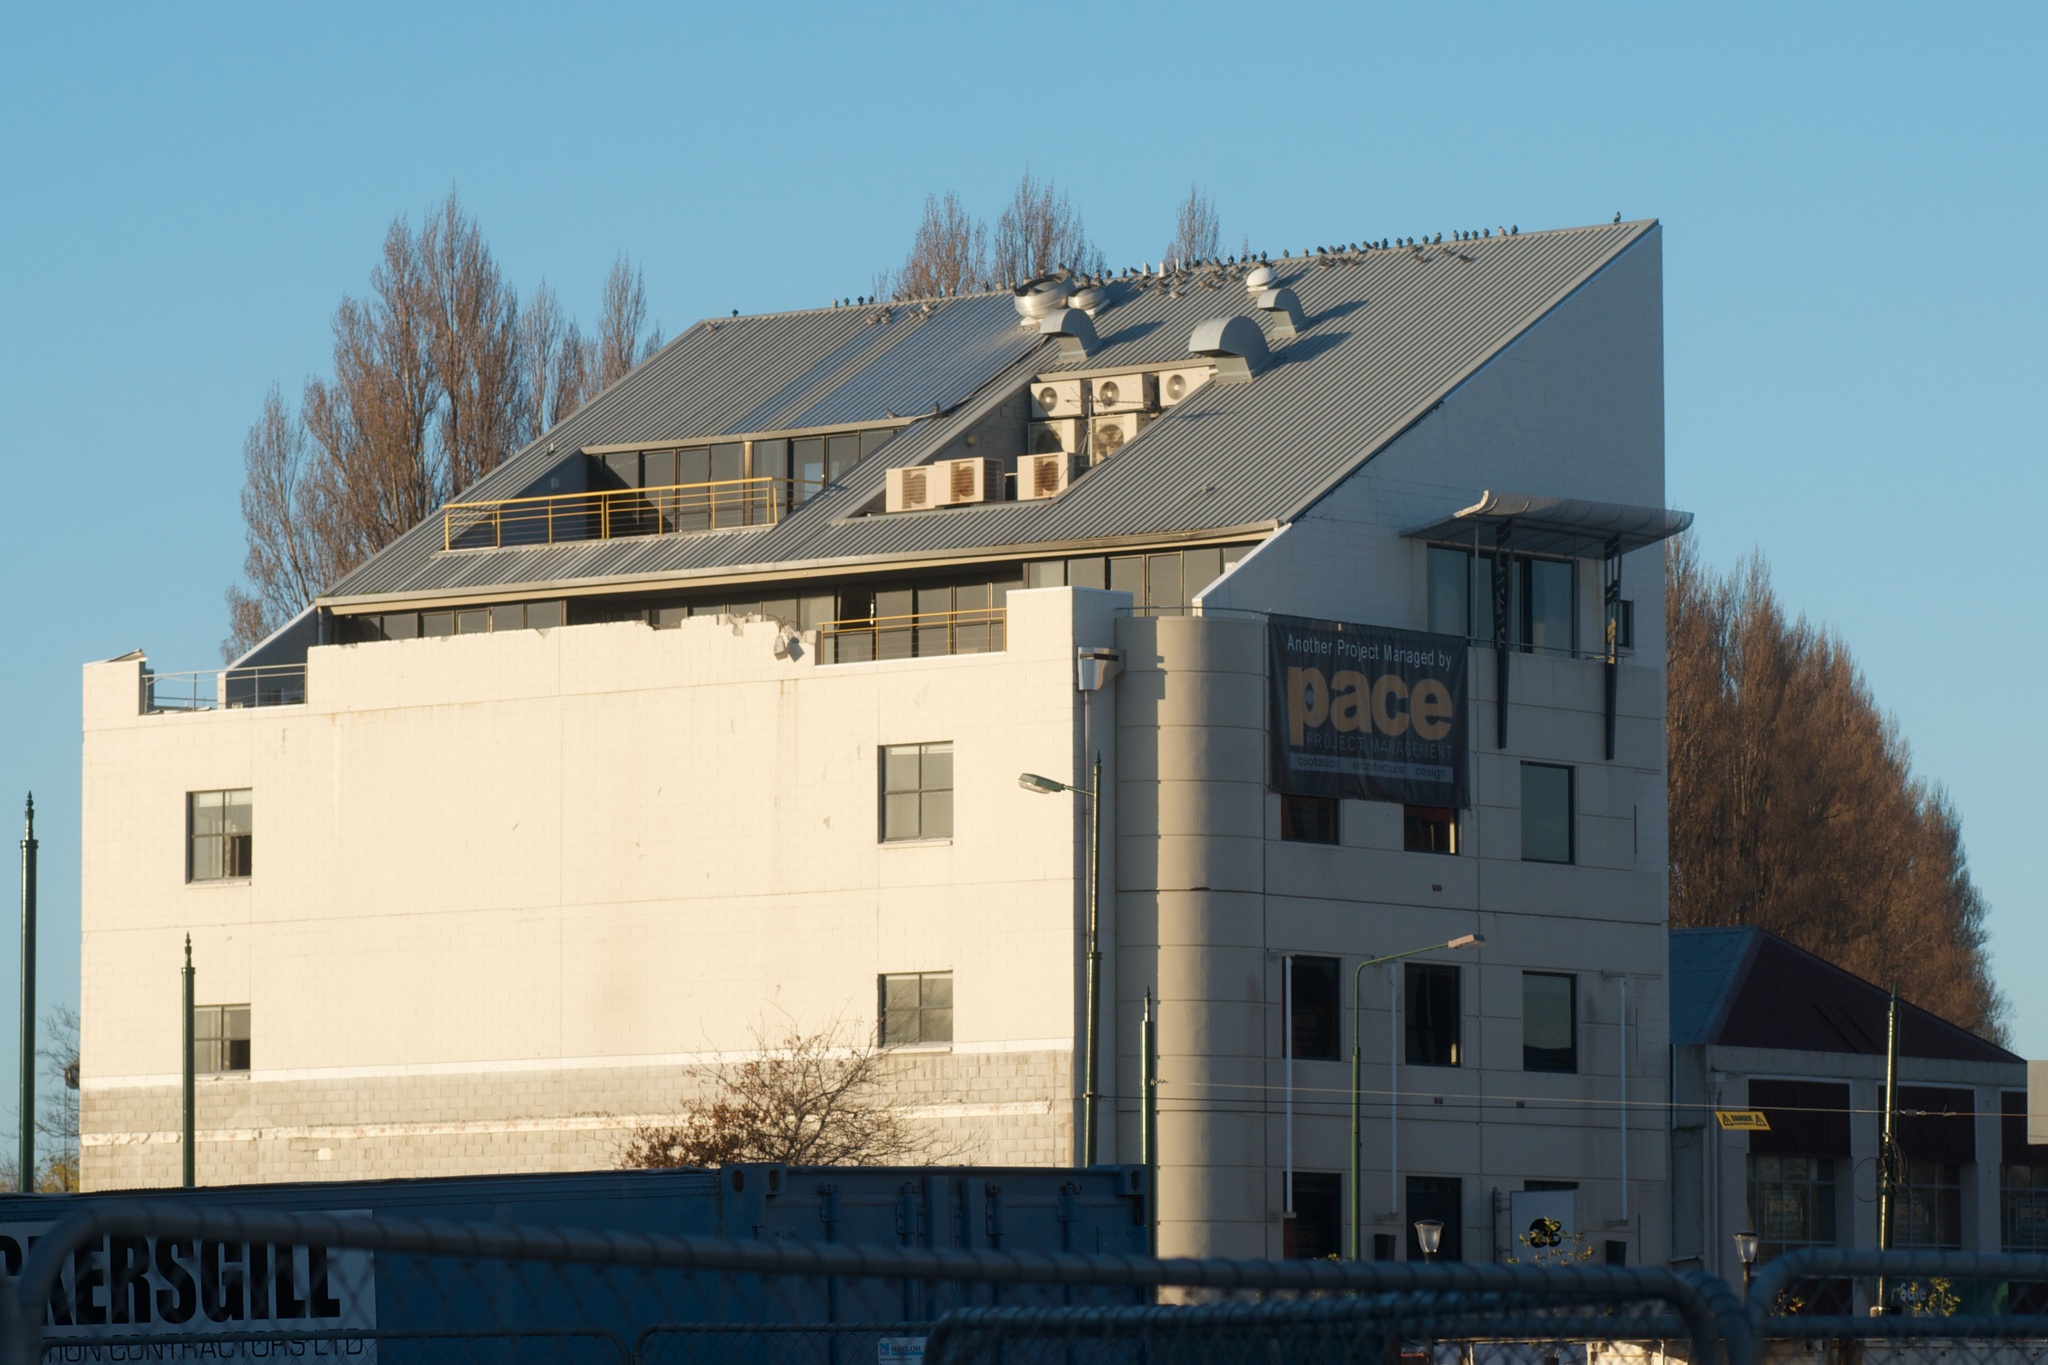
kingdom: Animalia
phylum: Chordata
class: Aves
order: Columbiformes
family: Columbidae
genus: Columba
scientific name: Columba livia
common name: Rock pigeon
